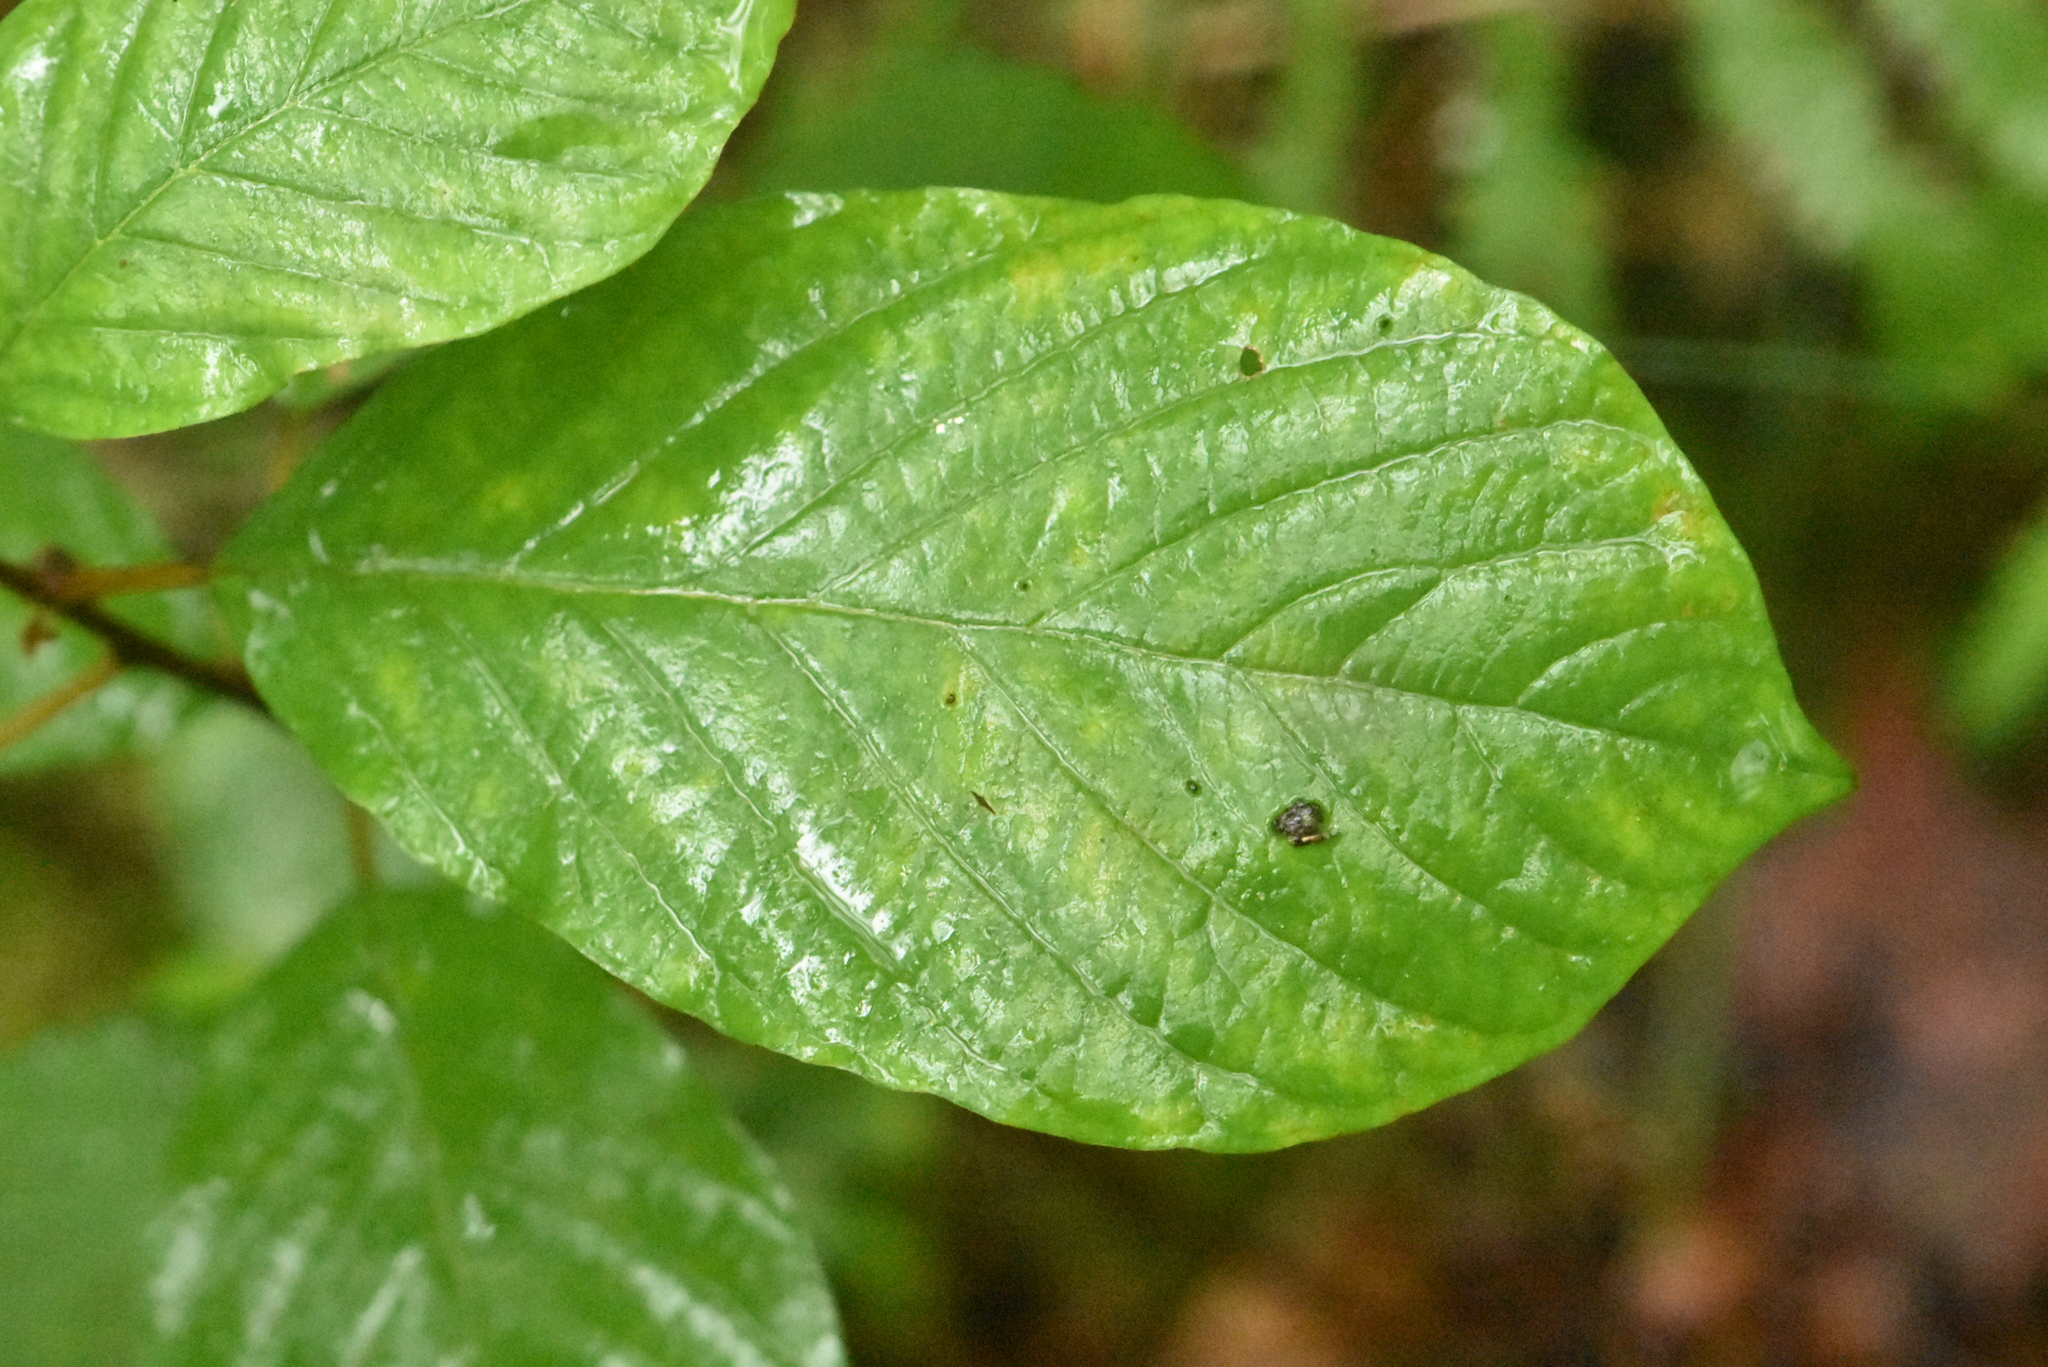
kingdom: Plantae
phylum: Tracheophyta
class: Magnoliopsida
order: Rosales
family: Rhamnaceae
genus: Frangula
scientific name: Frangula alnus
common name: Alder buckthorn
